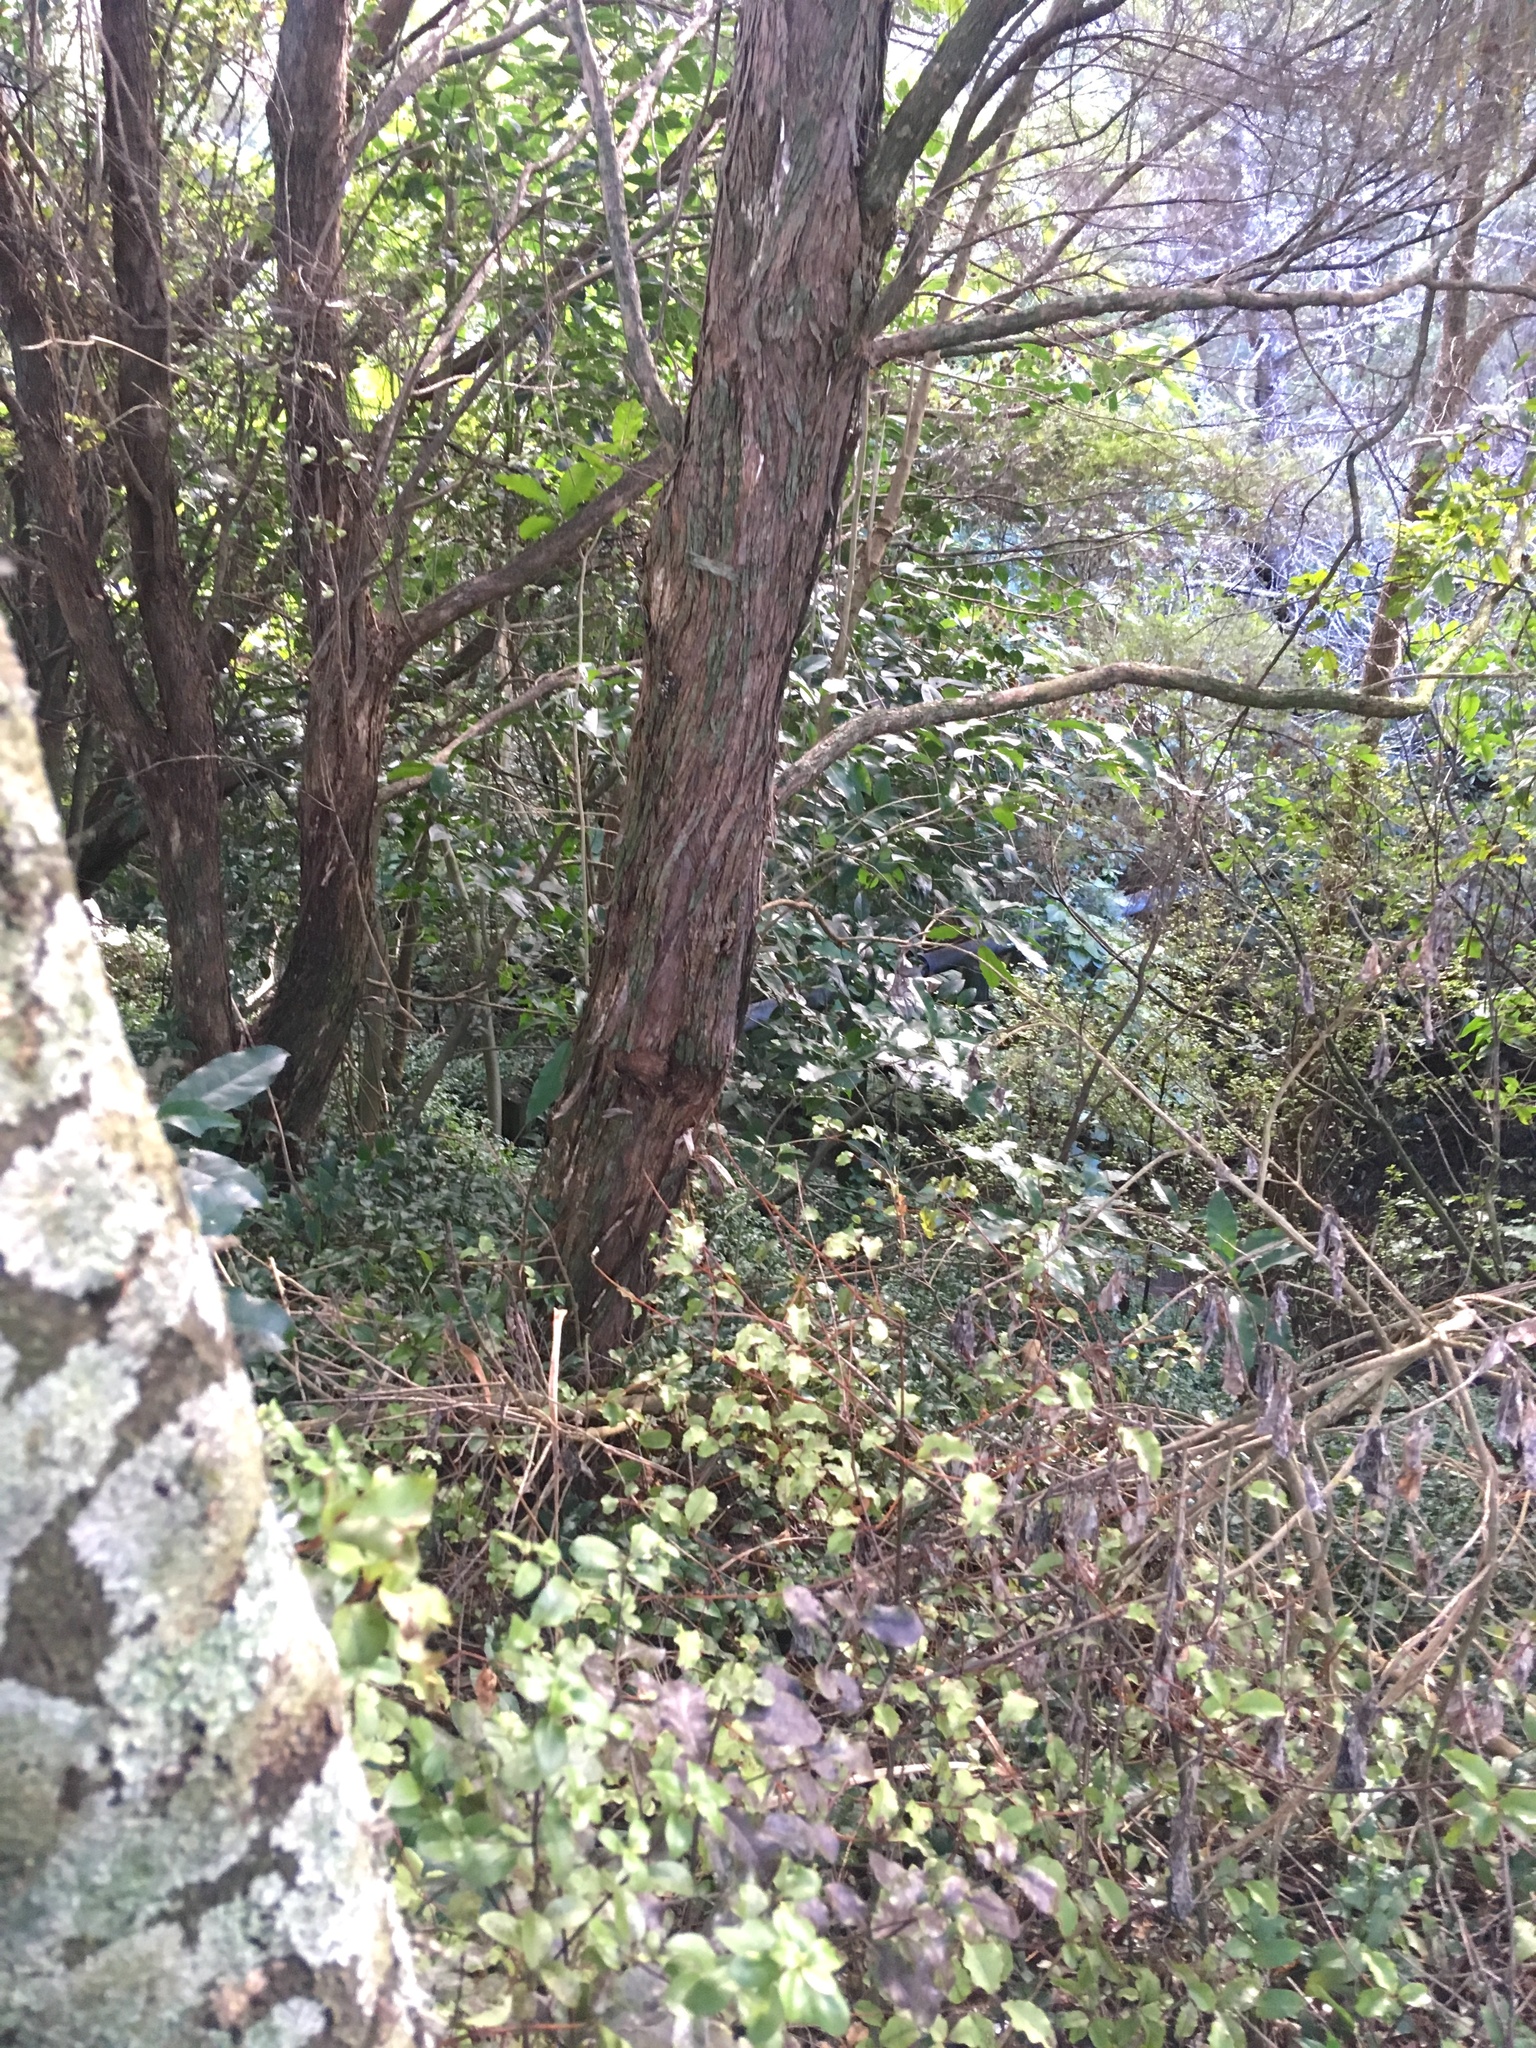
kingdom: Plantae
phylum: Tracheophyta
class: Magnoliopsida
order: Ericales
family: Primulaceae
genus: Myrsine
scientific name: Myrsine australis
